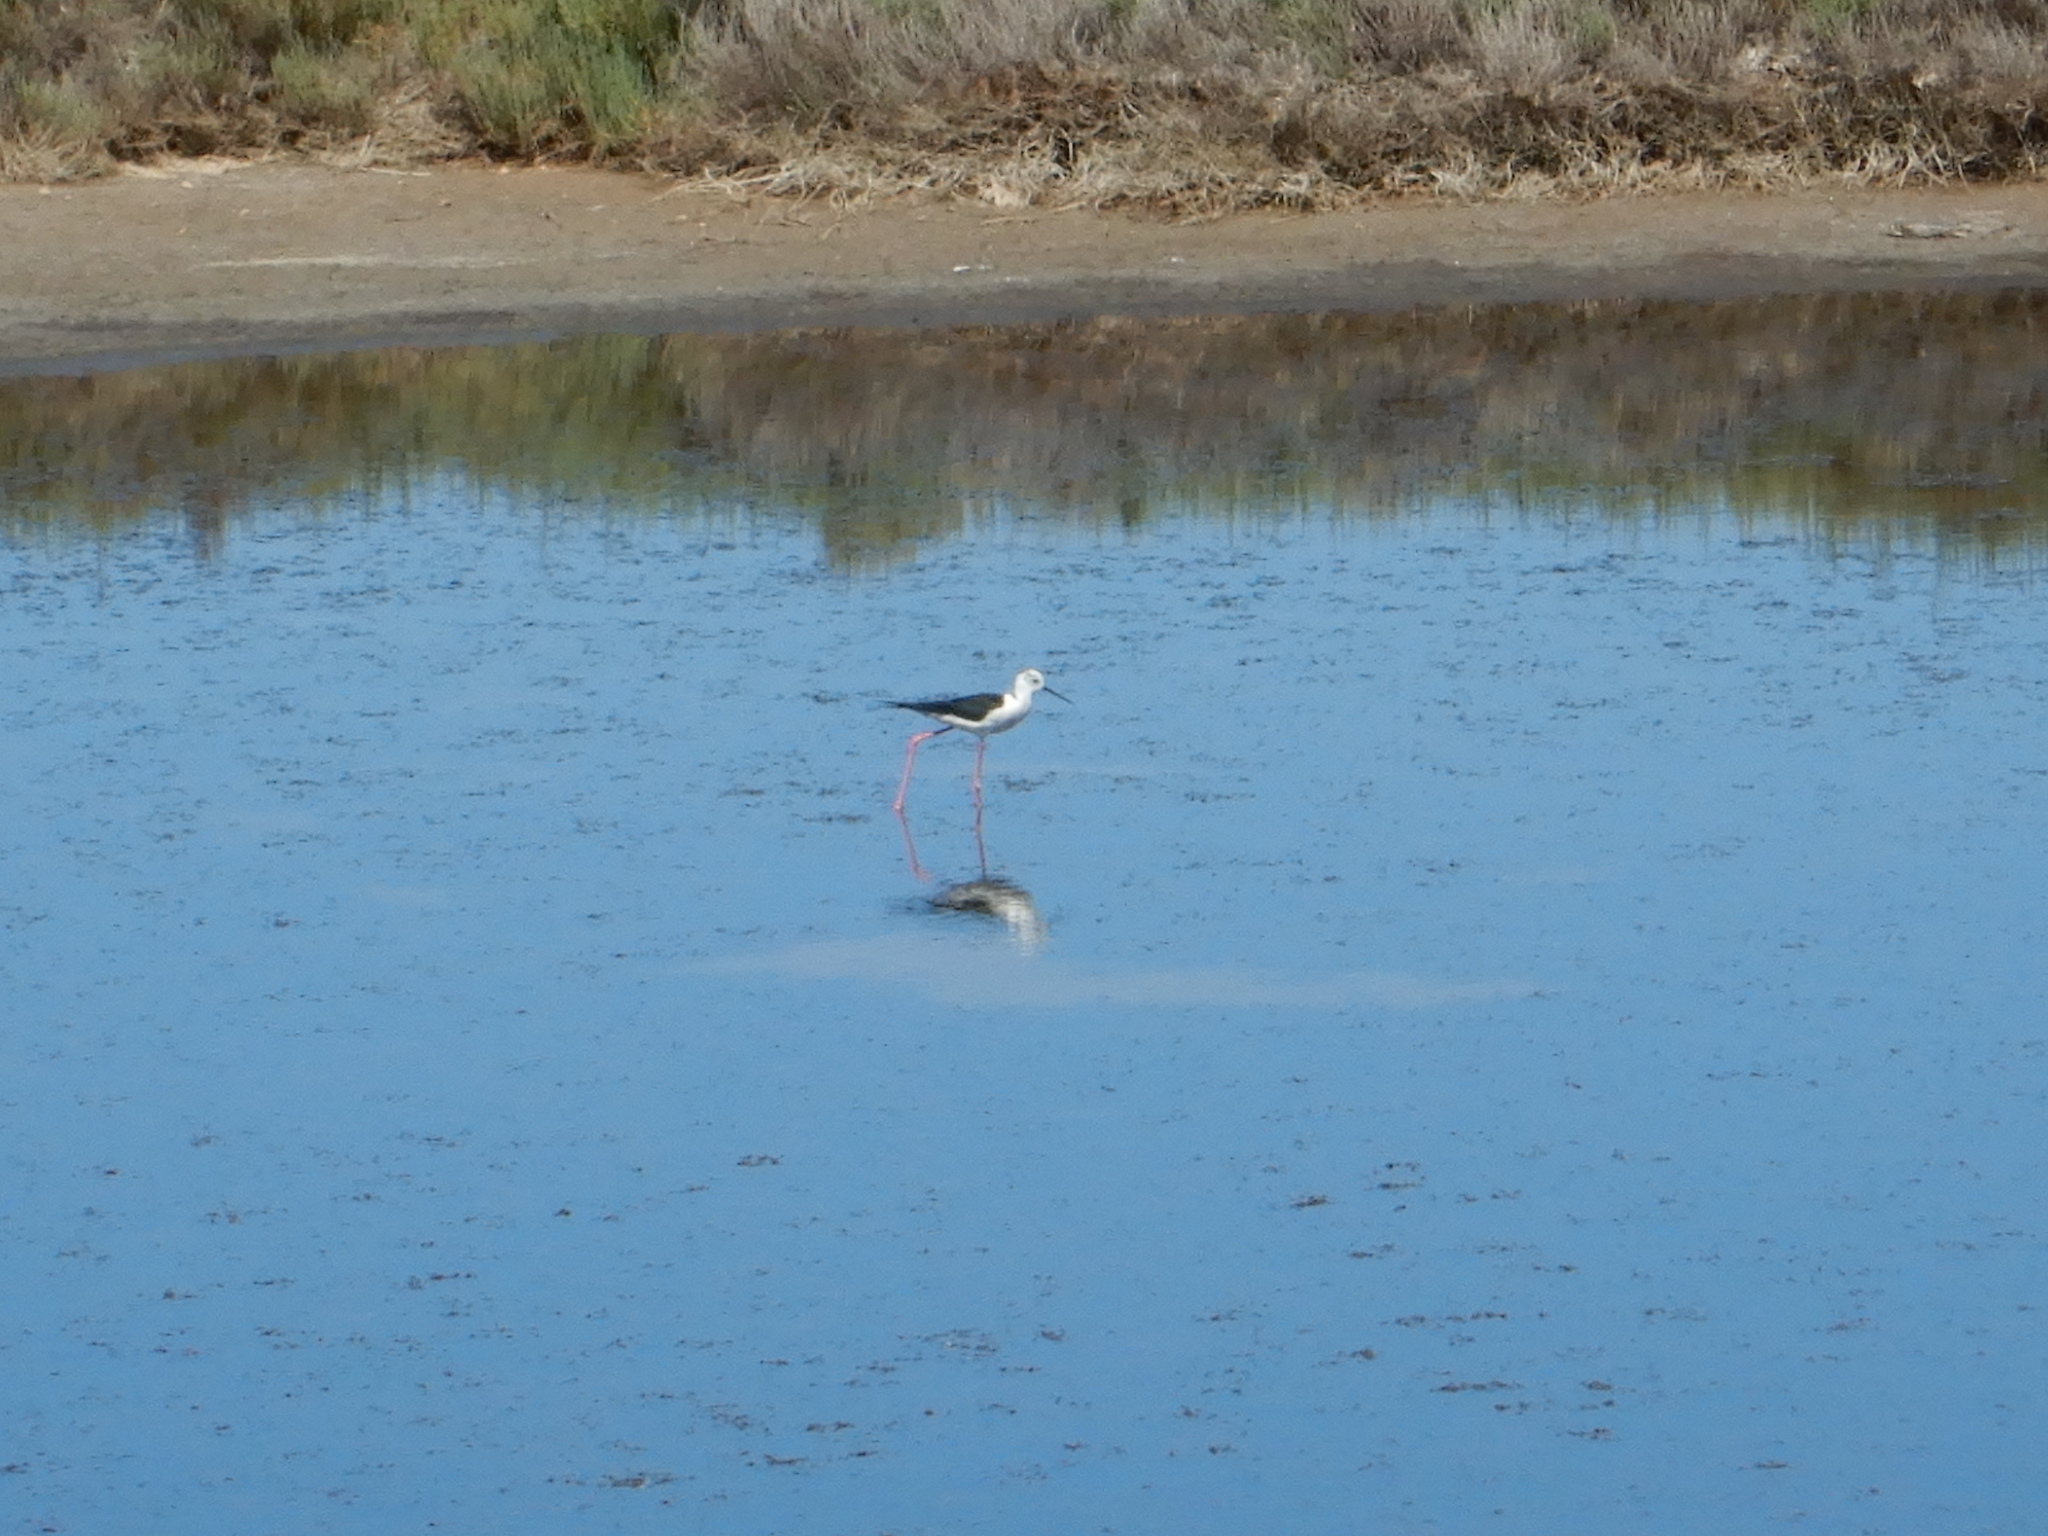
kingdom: Animalia
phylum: Chordata
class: Aves
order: Charadriiformes
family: Recurvirostridae
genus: Himantopus
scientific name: Himantopus himantopus
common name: Black-winged stilt
